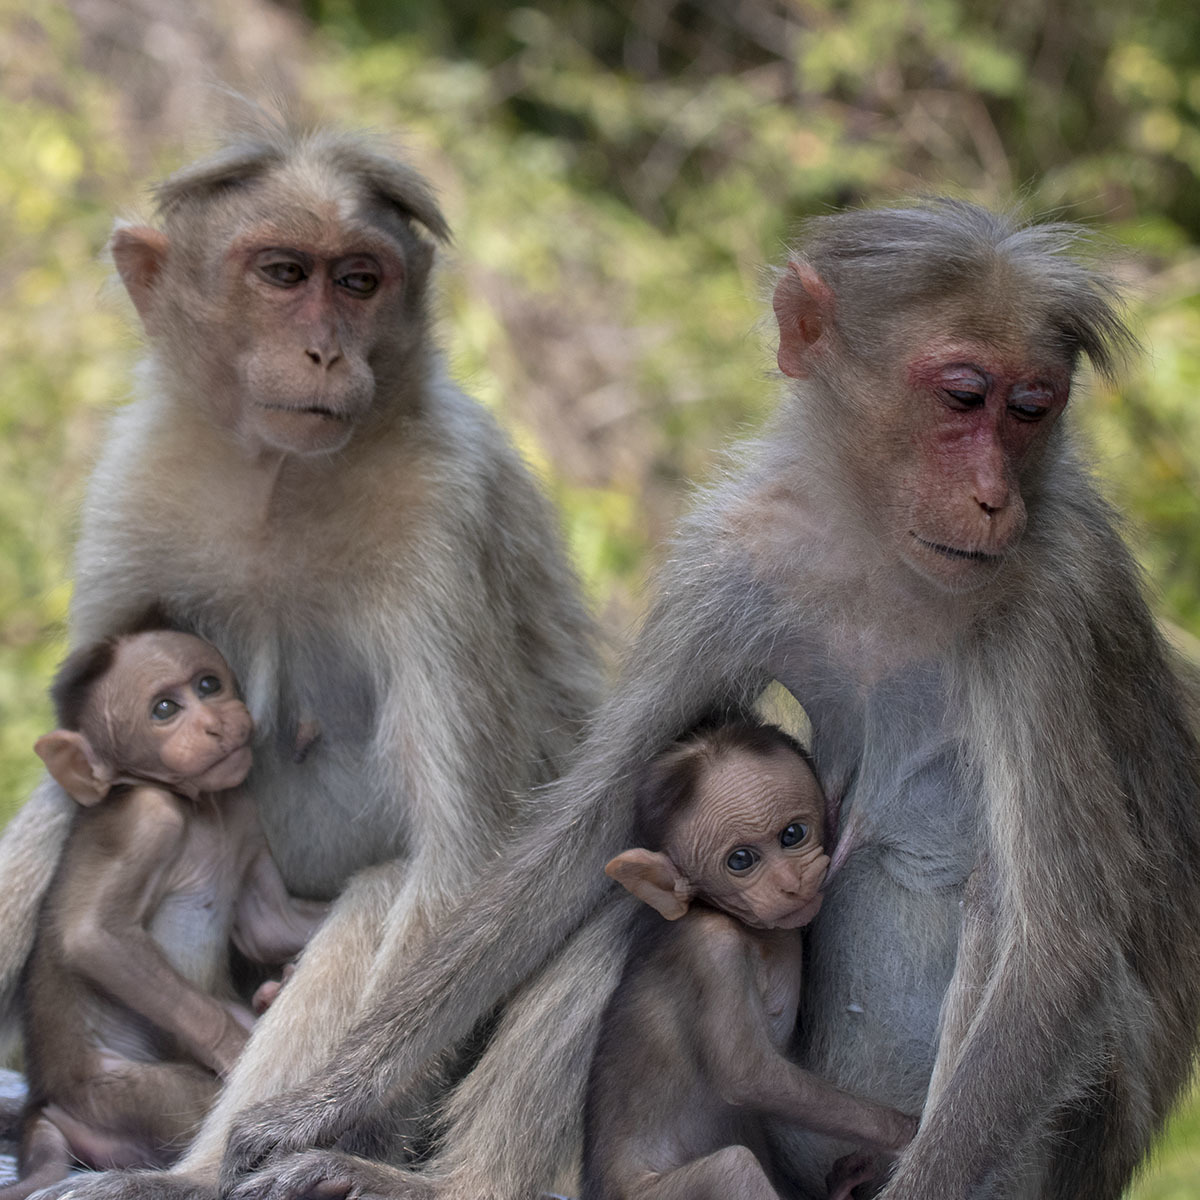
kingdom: Animalia
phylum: Chordata
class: Mammalia
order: Primates
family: Cercopithecidae
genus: Macaca
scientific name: Macaca radiata
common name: Bonnet macaque
